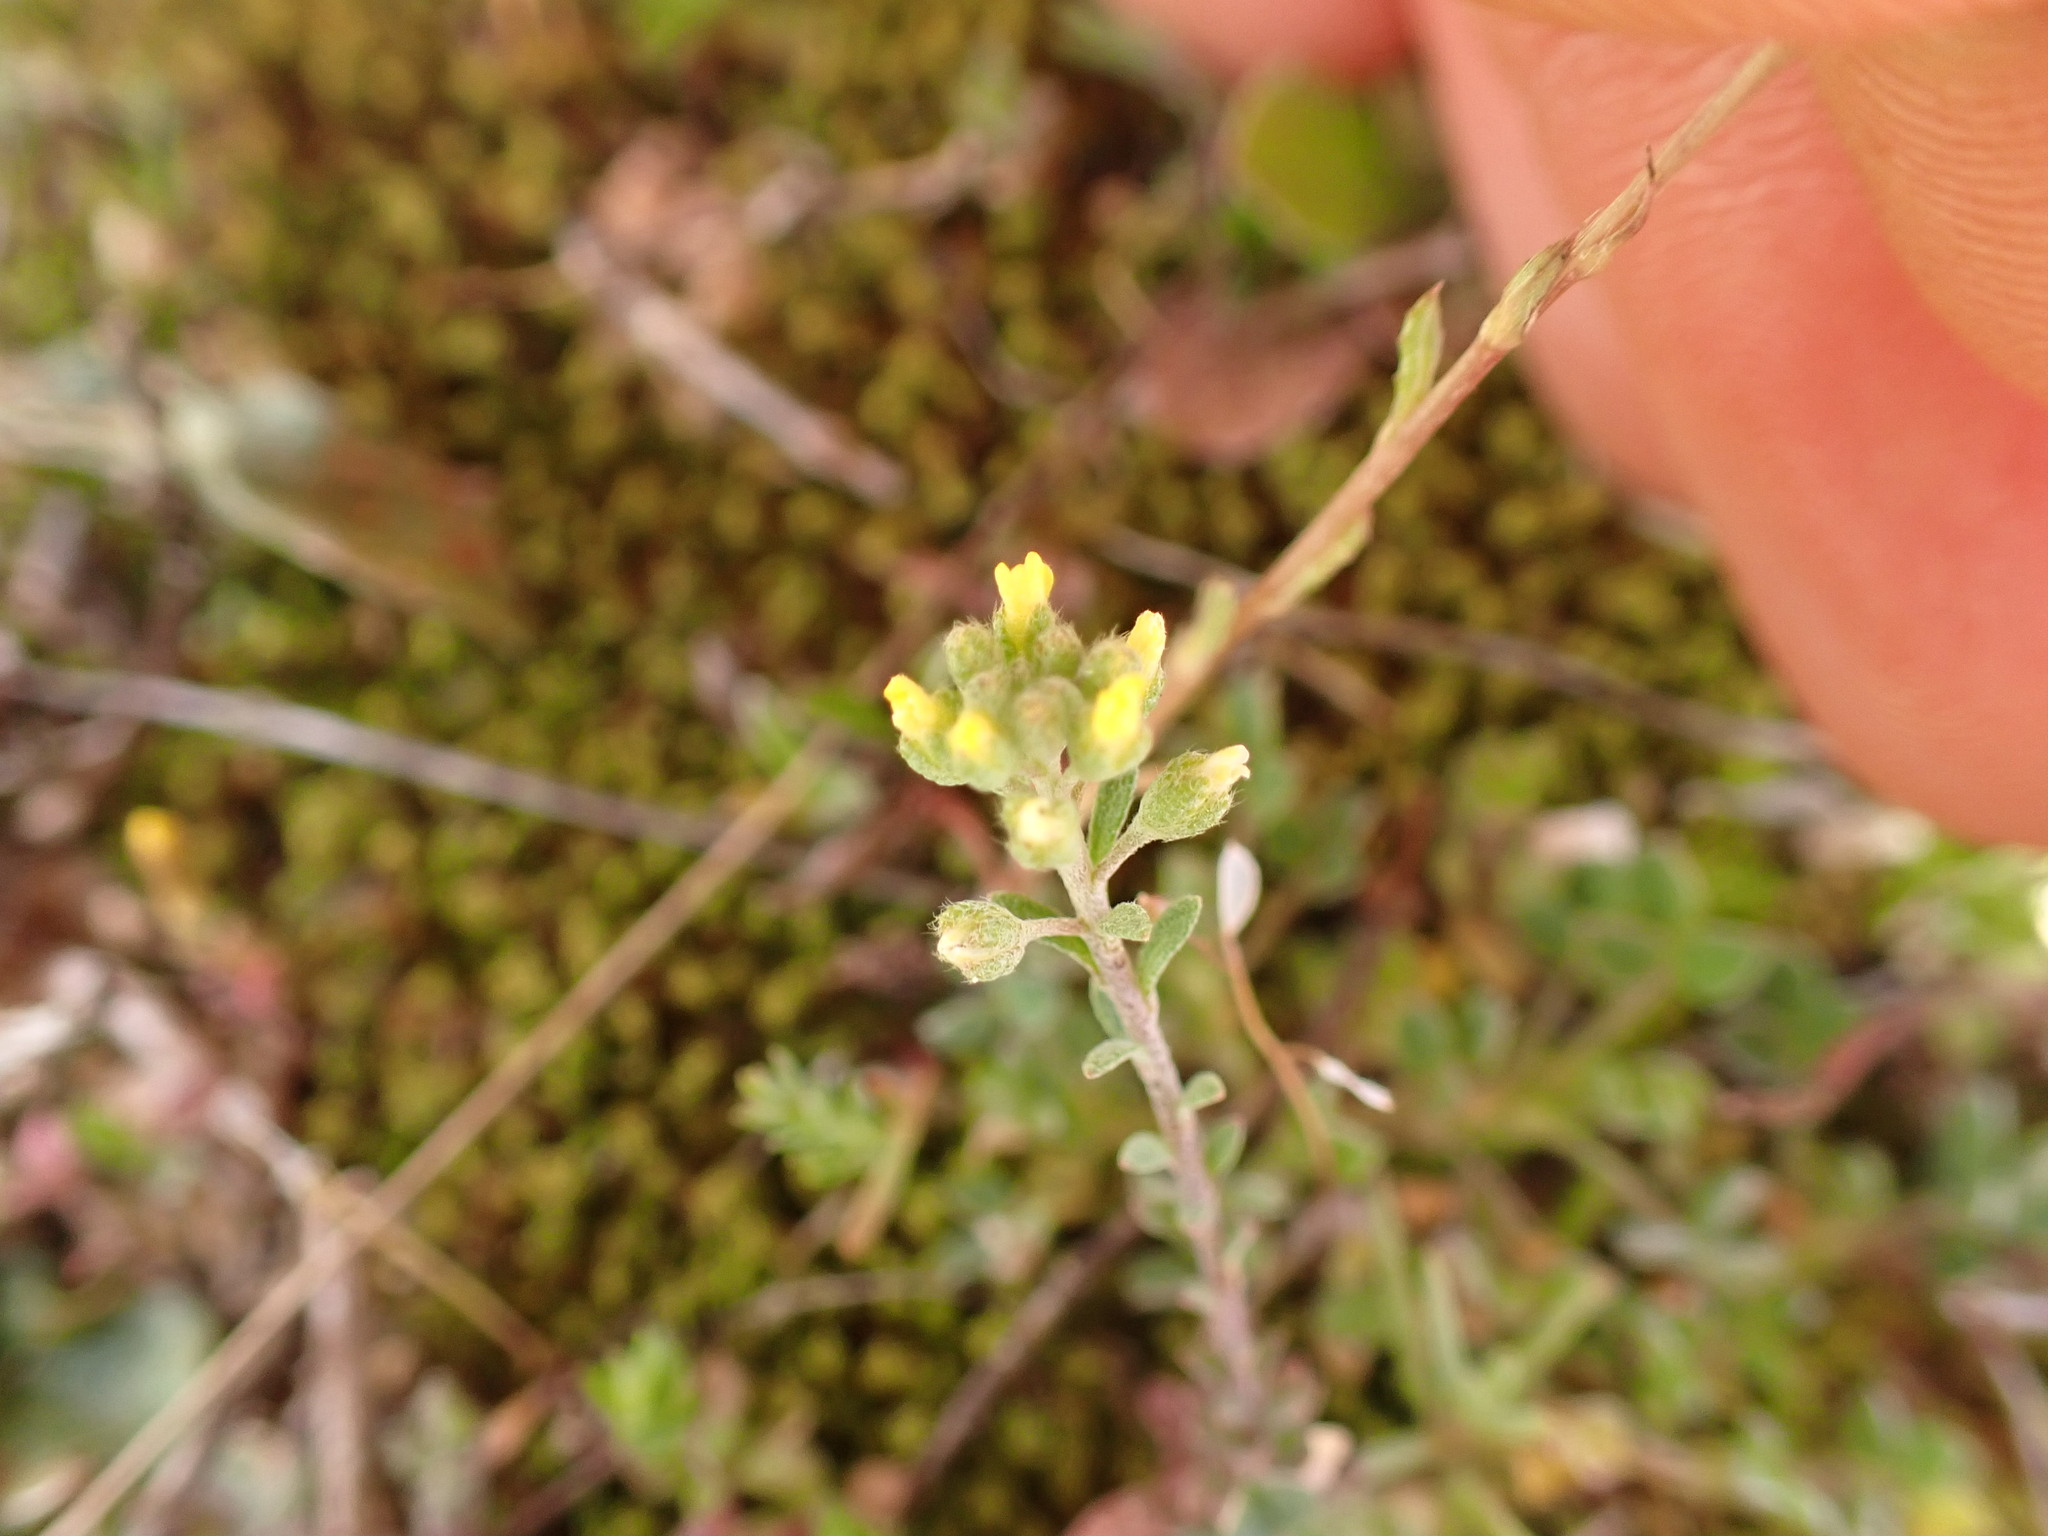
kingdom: Plantae
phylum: Tracheophyta
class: Magnoliopsida
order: Brassicales
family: Brassicaceae
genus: Alyssum
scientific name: Alyssum alyssoides
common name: Small alison
